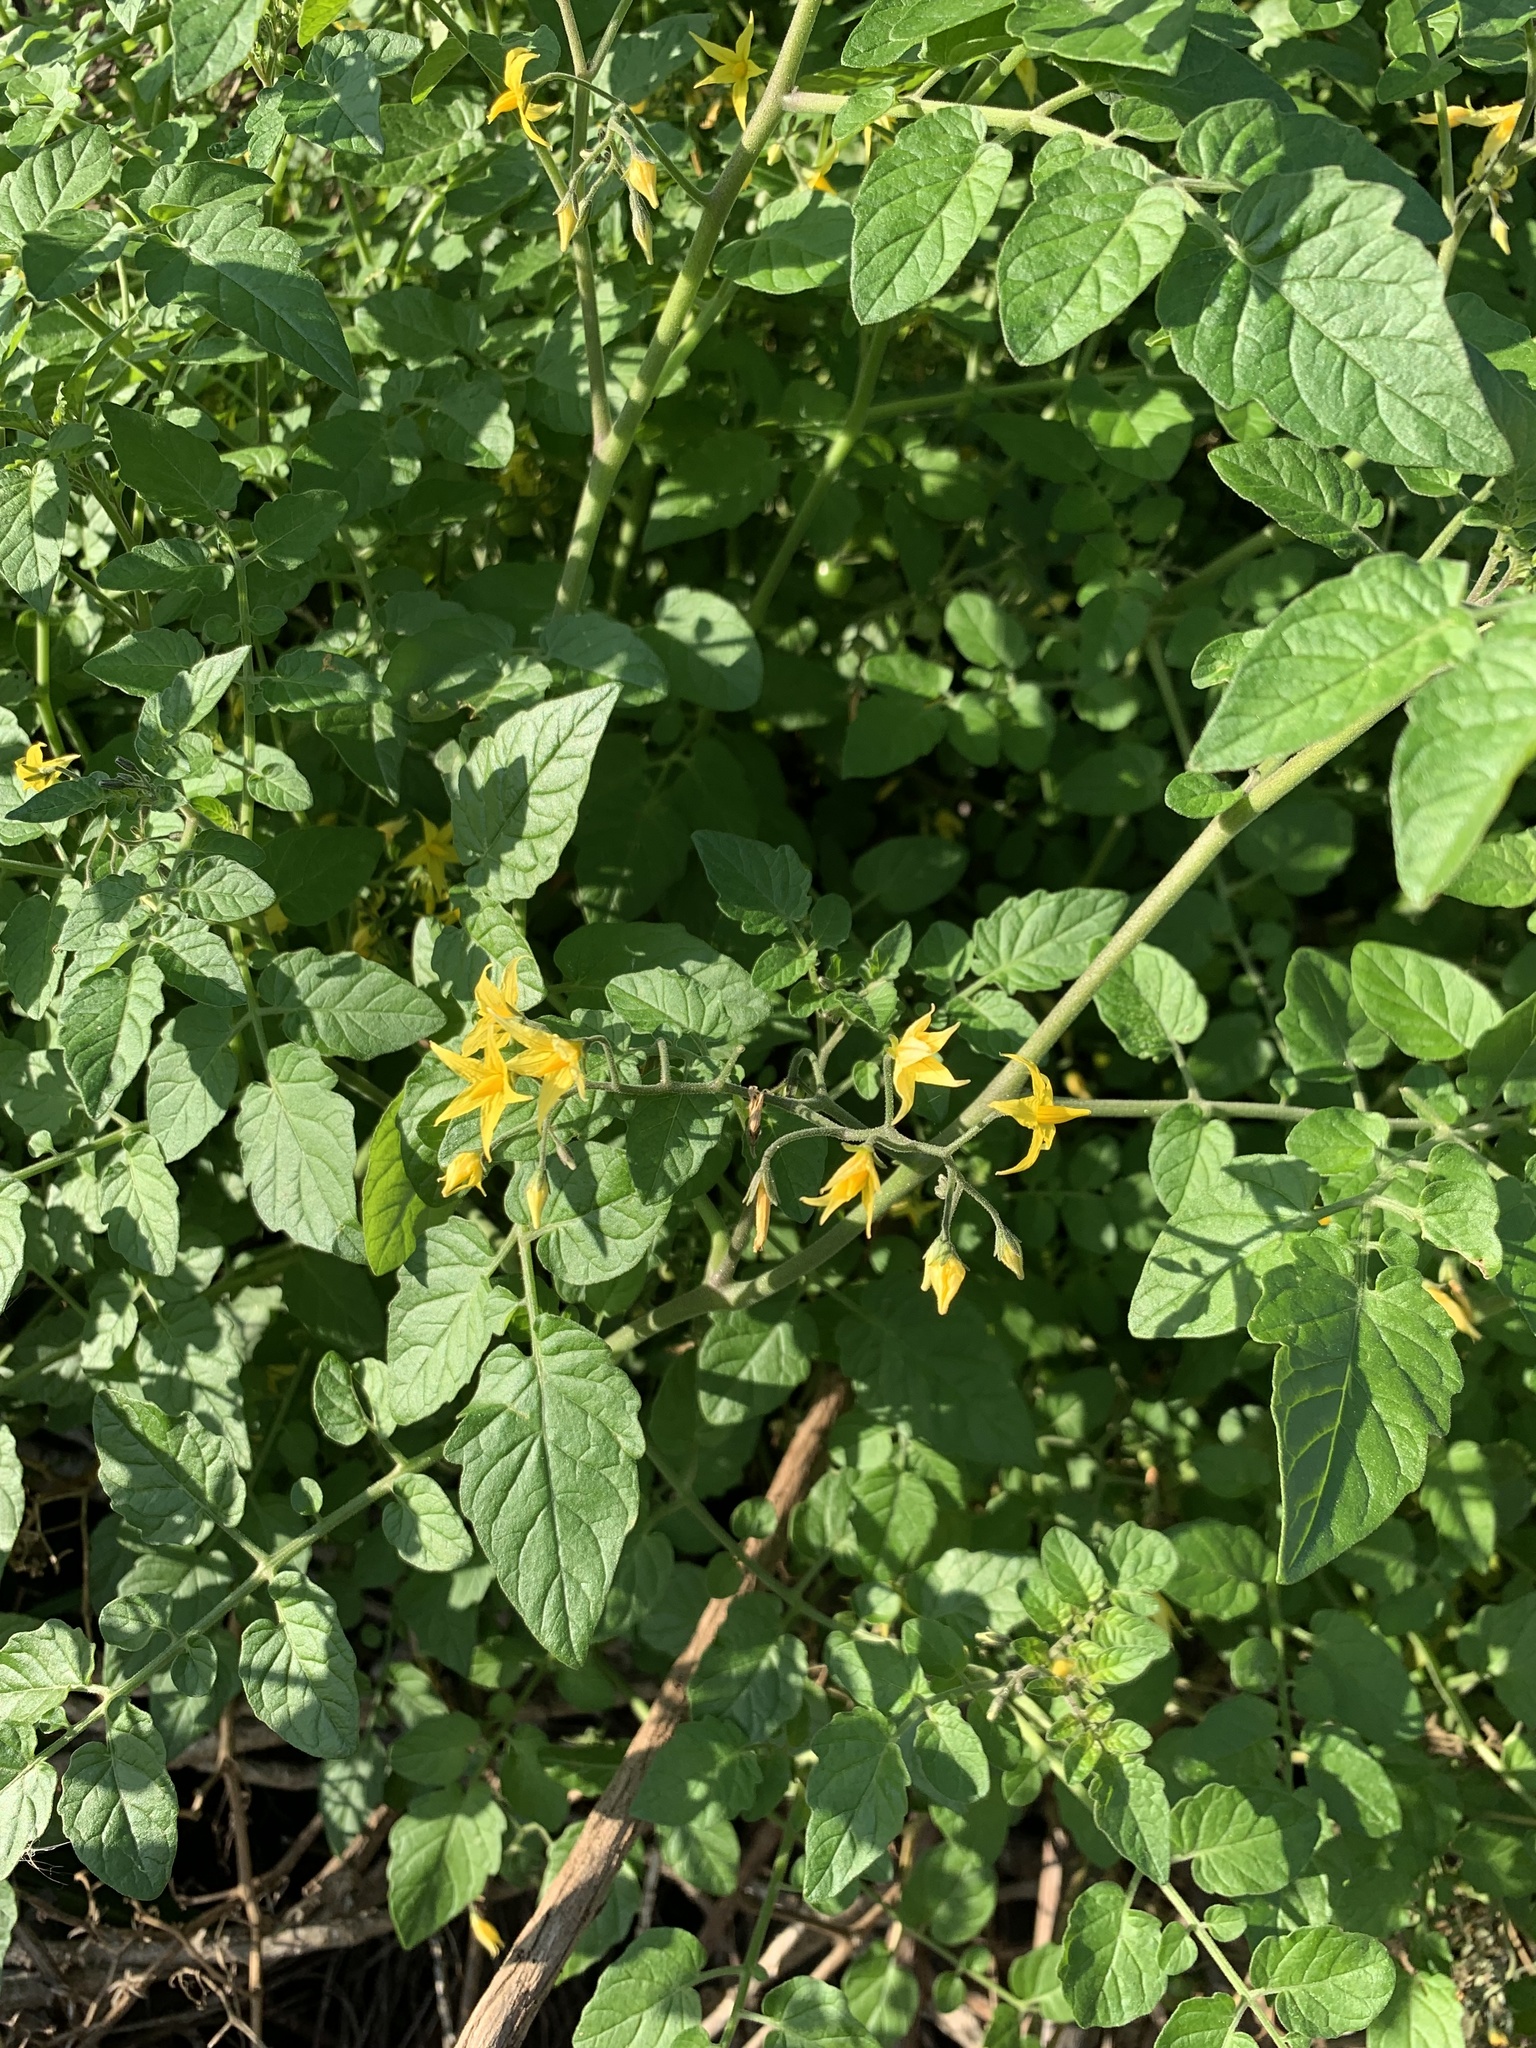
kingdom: Plantae
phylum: Tracheophyta
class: Magnoliopsida
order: Solanales
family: Solanaceae
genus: Solanum
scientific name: Solanum lycopersicum
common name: Garden tomato
